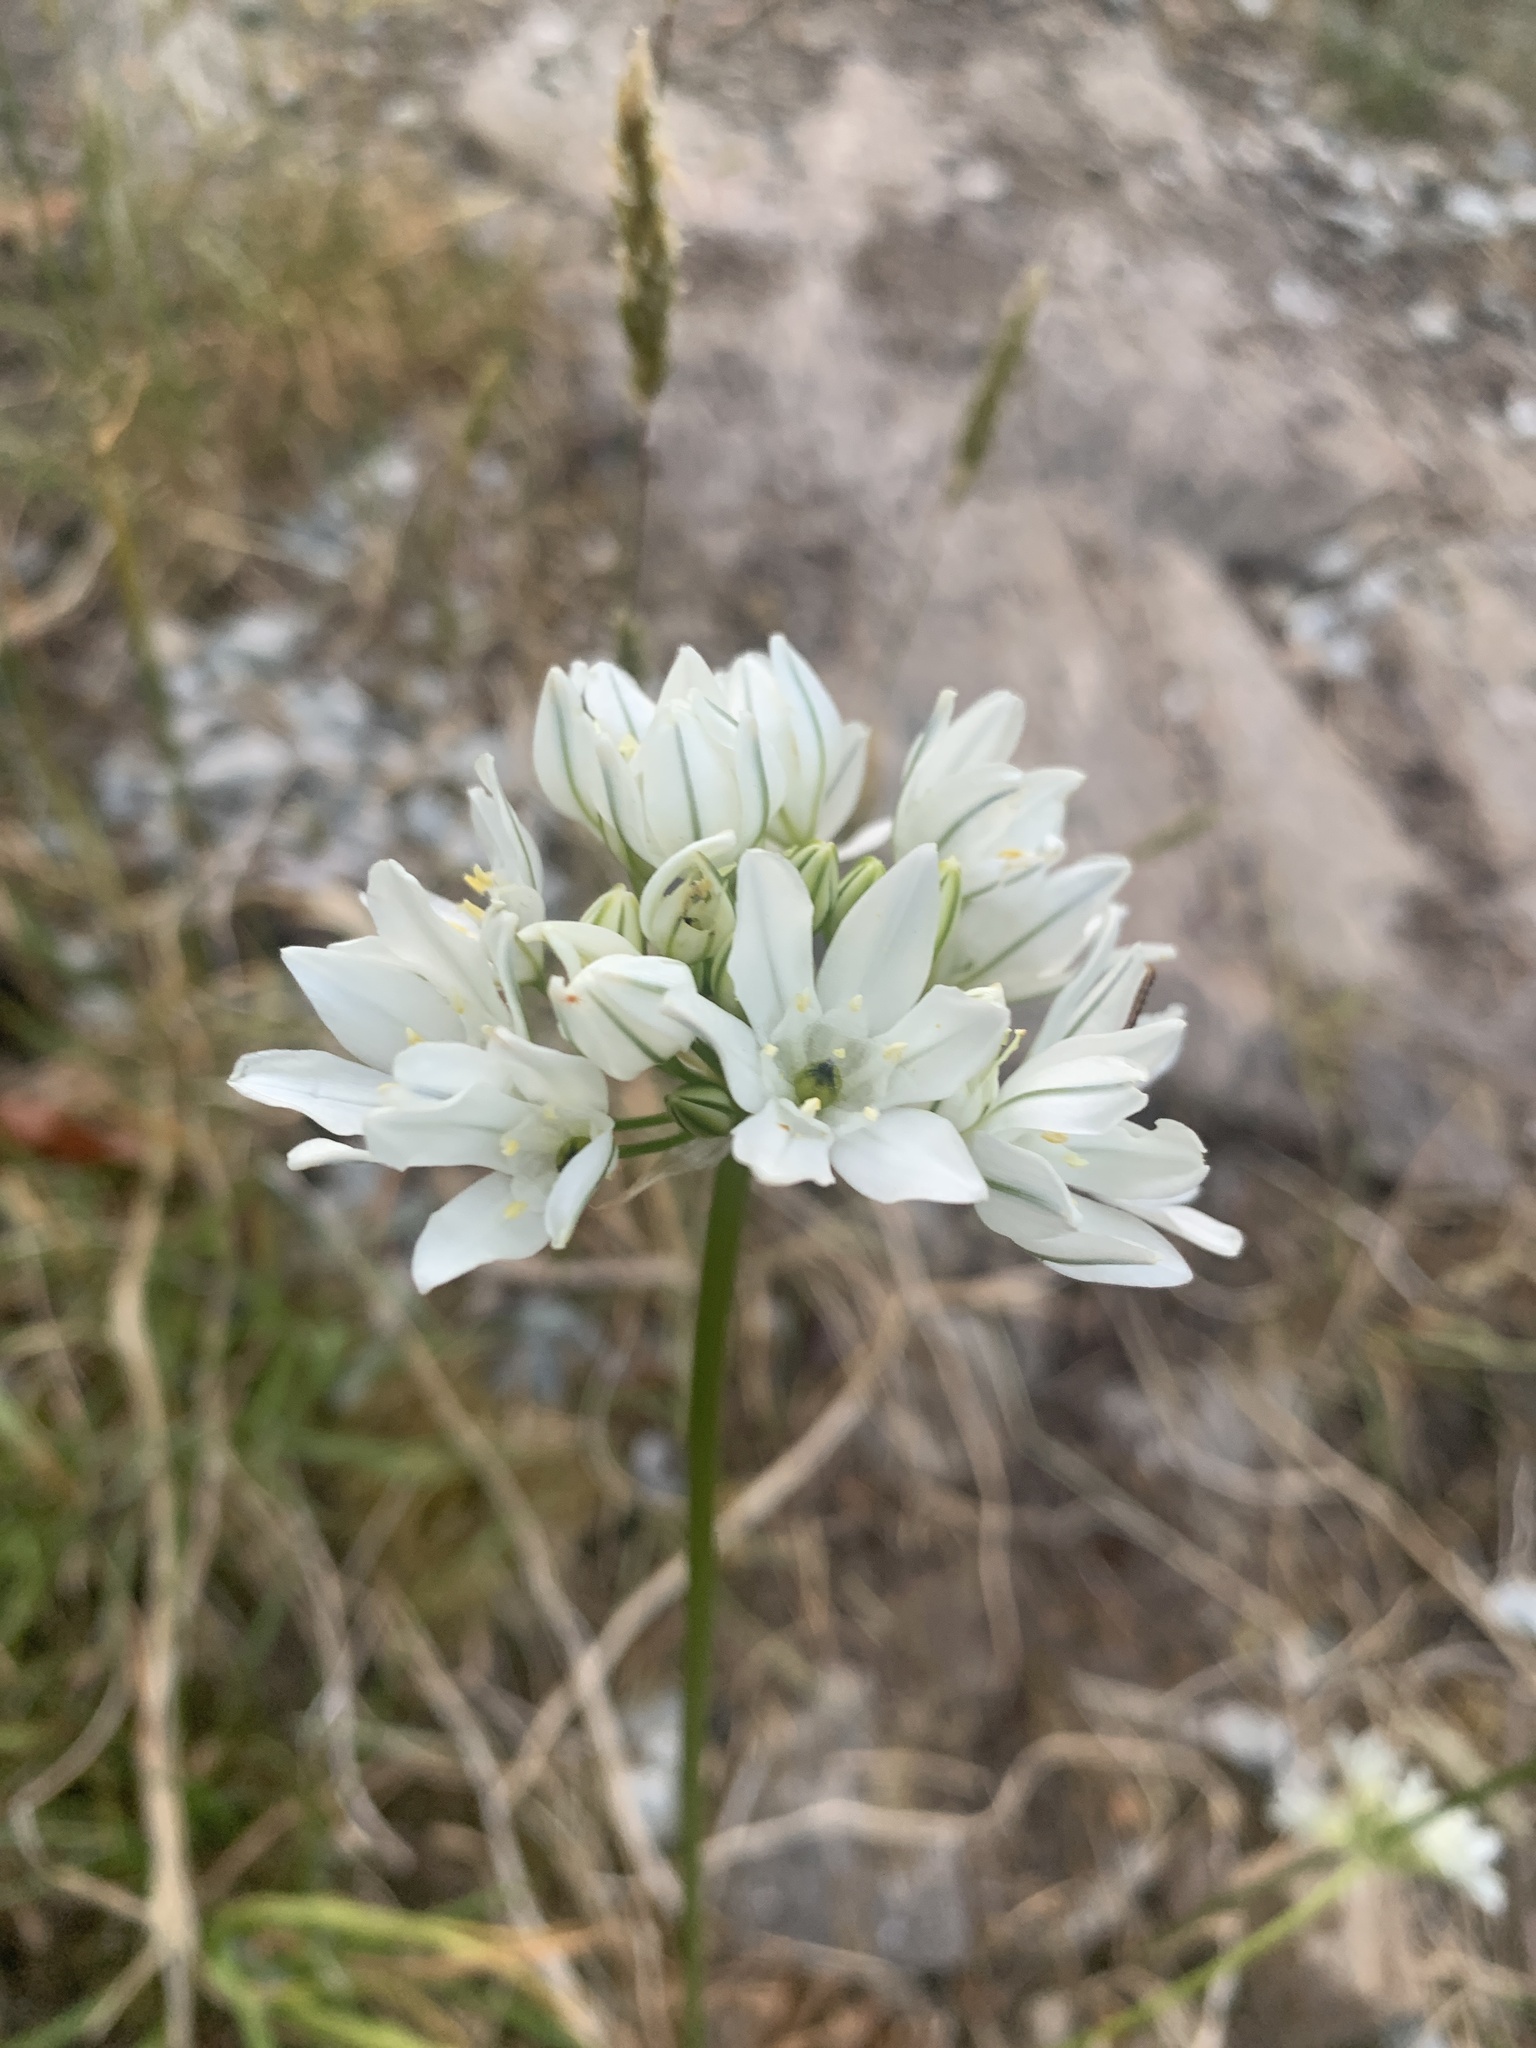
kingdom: Plantae
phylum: Tracheophyta
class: Liliopsida
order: Asparagales
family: Asparagaceae
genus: Triteleia
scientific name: Triteleia hyacinthina
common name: White brodiaea
